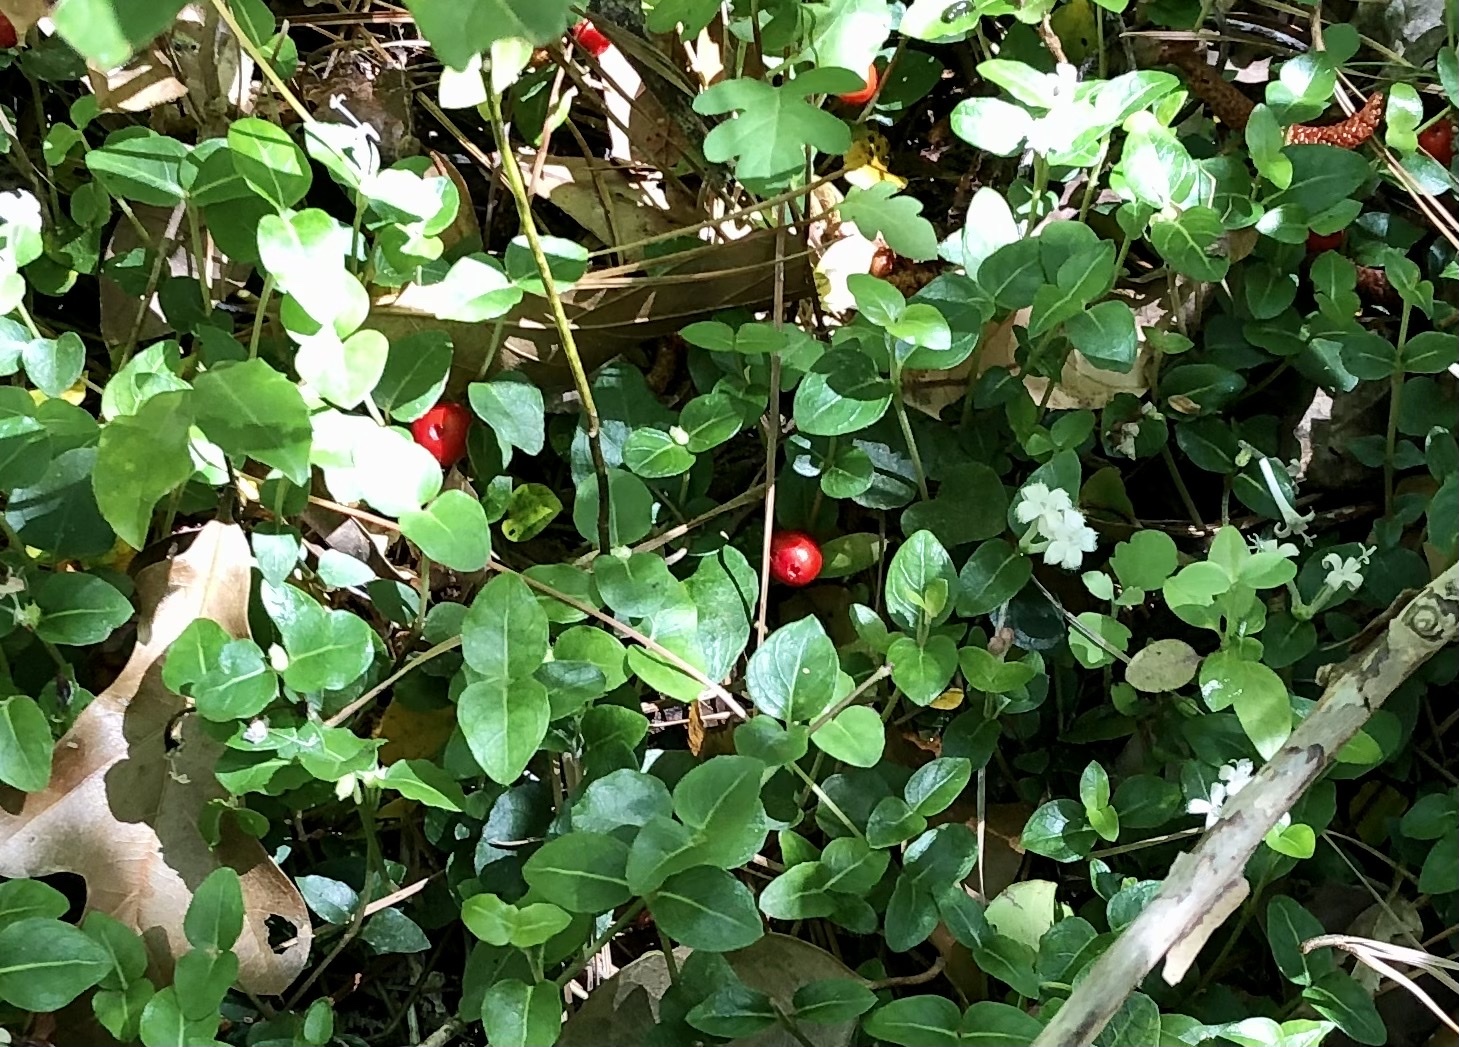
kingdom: Plantae
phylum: Tracheophyta
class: Magnoliopsida
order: Gentianales
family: Rubiaceae
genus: Mitchella
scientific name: Mitchella repens
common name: Partridge-berry
